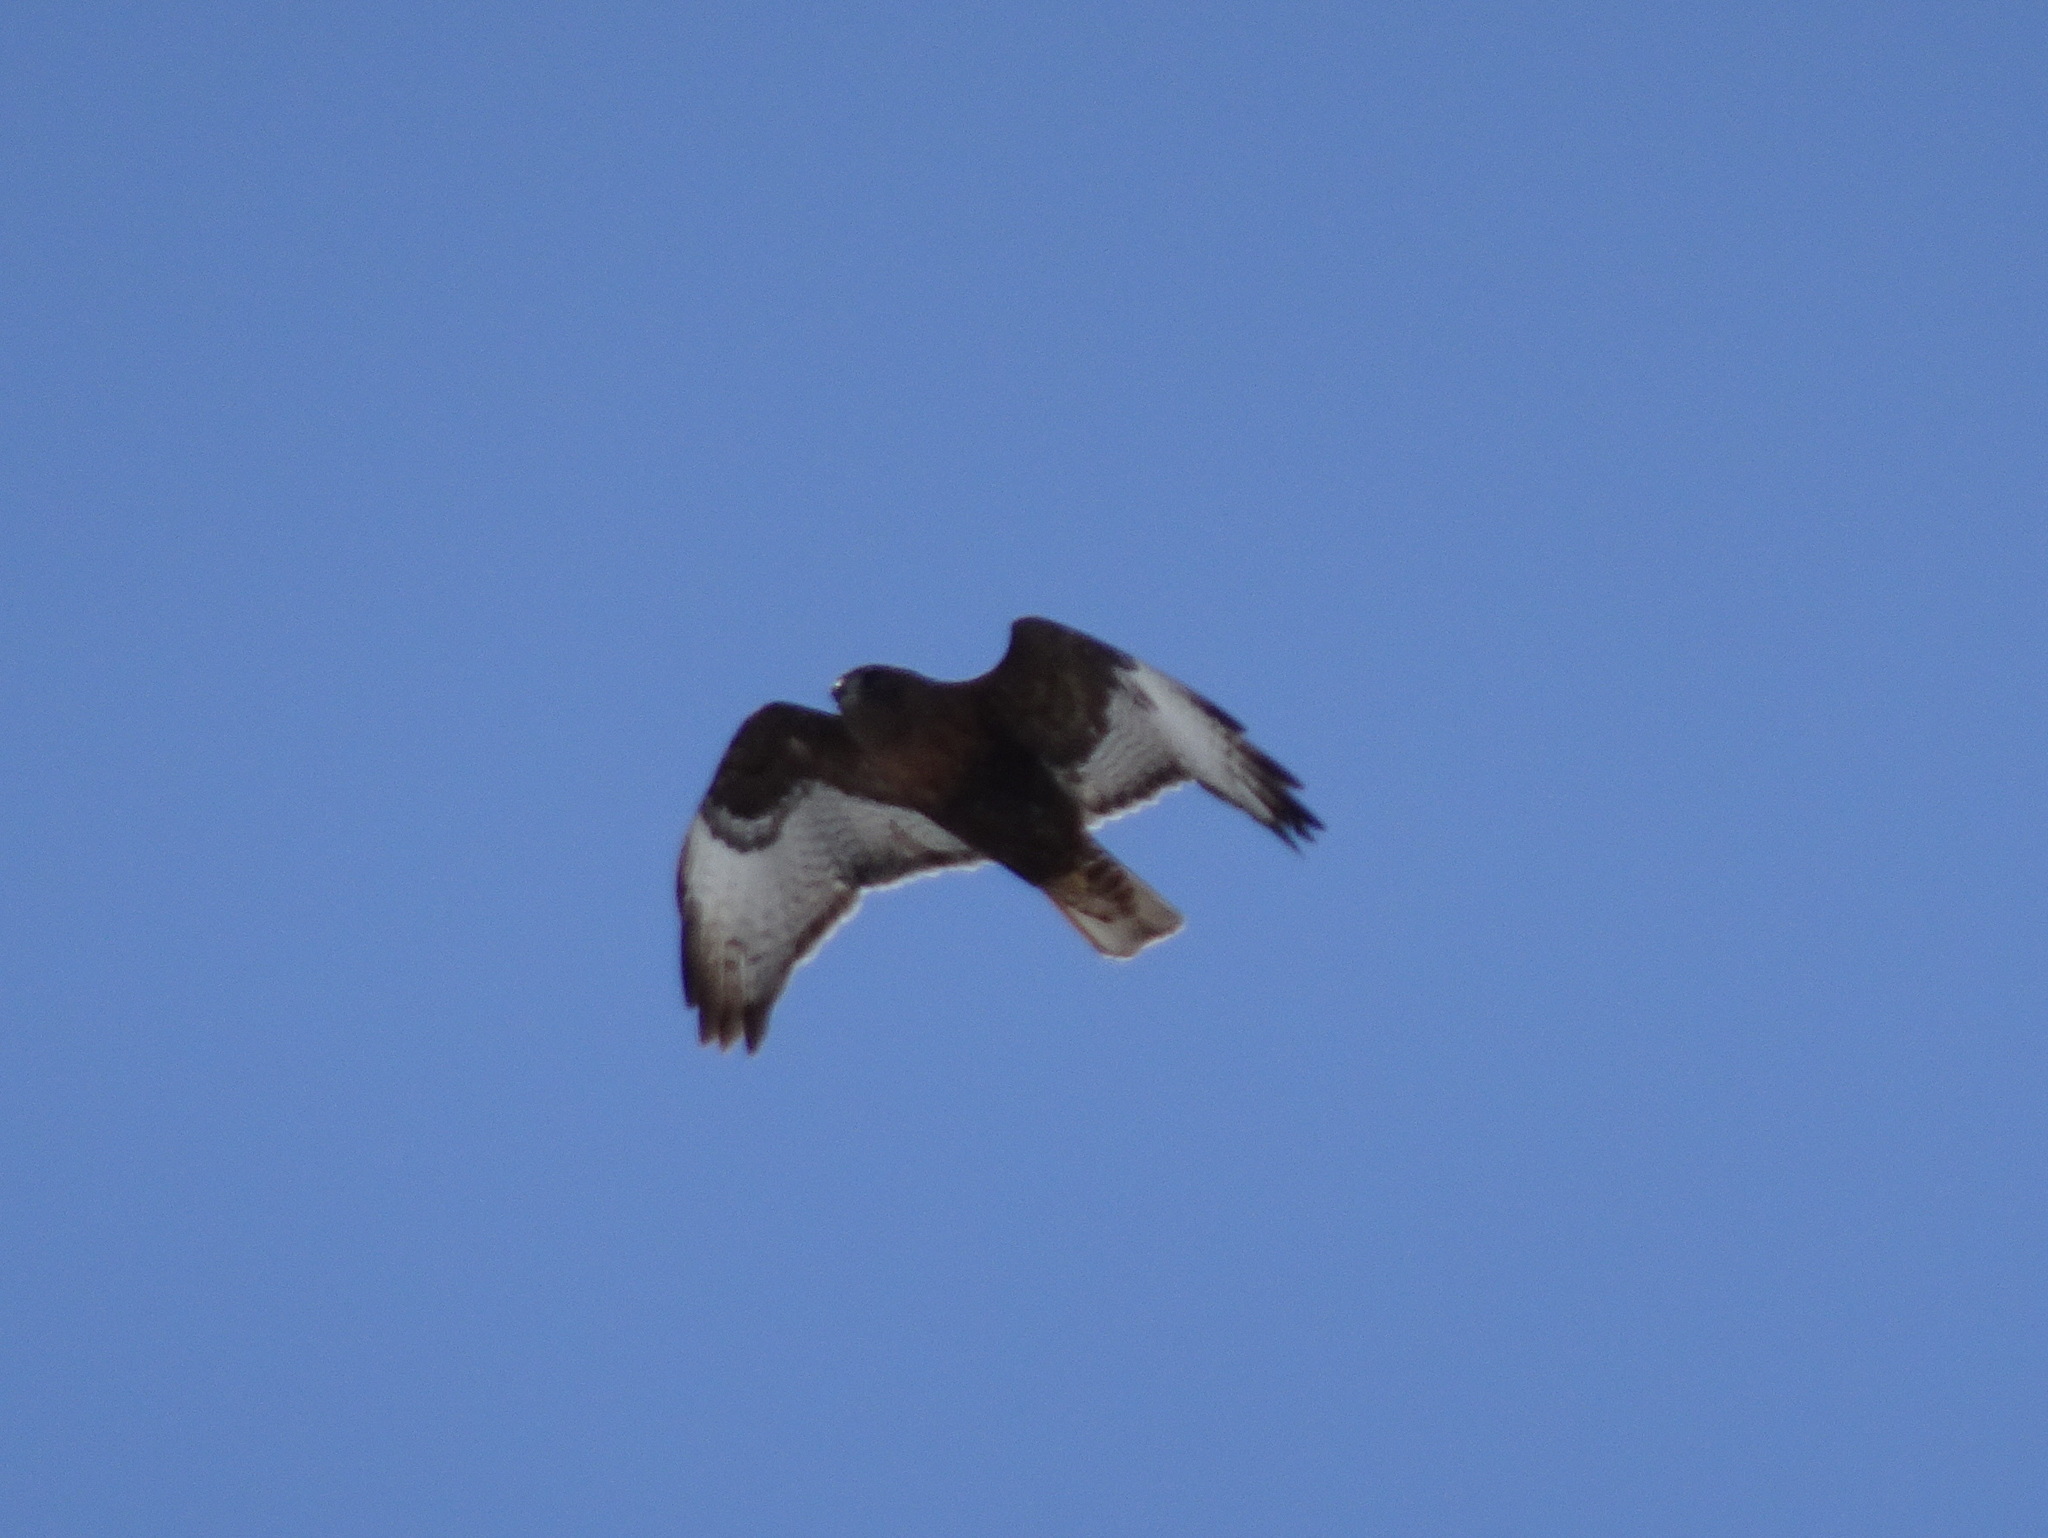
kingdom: Animalia
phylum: Chordata
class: Aves
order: Accipitriformes
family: Accipitridae
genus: Buteo
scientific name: Buteo lagopus
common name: Rough-legged buzzard
